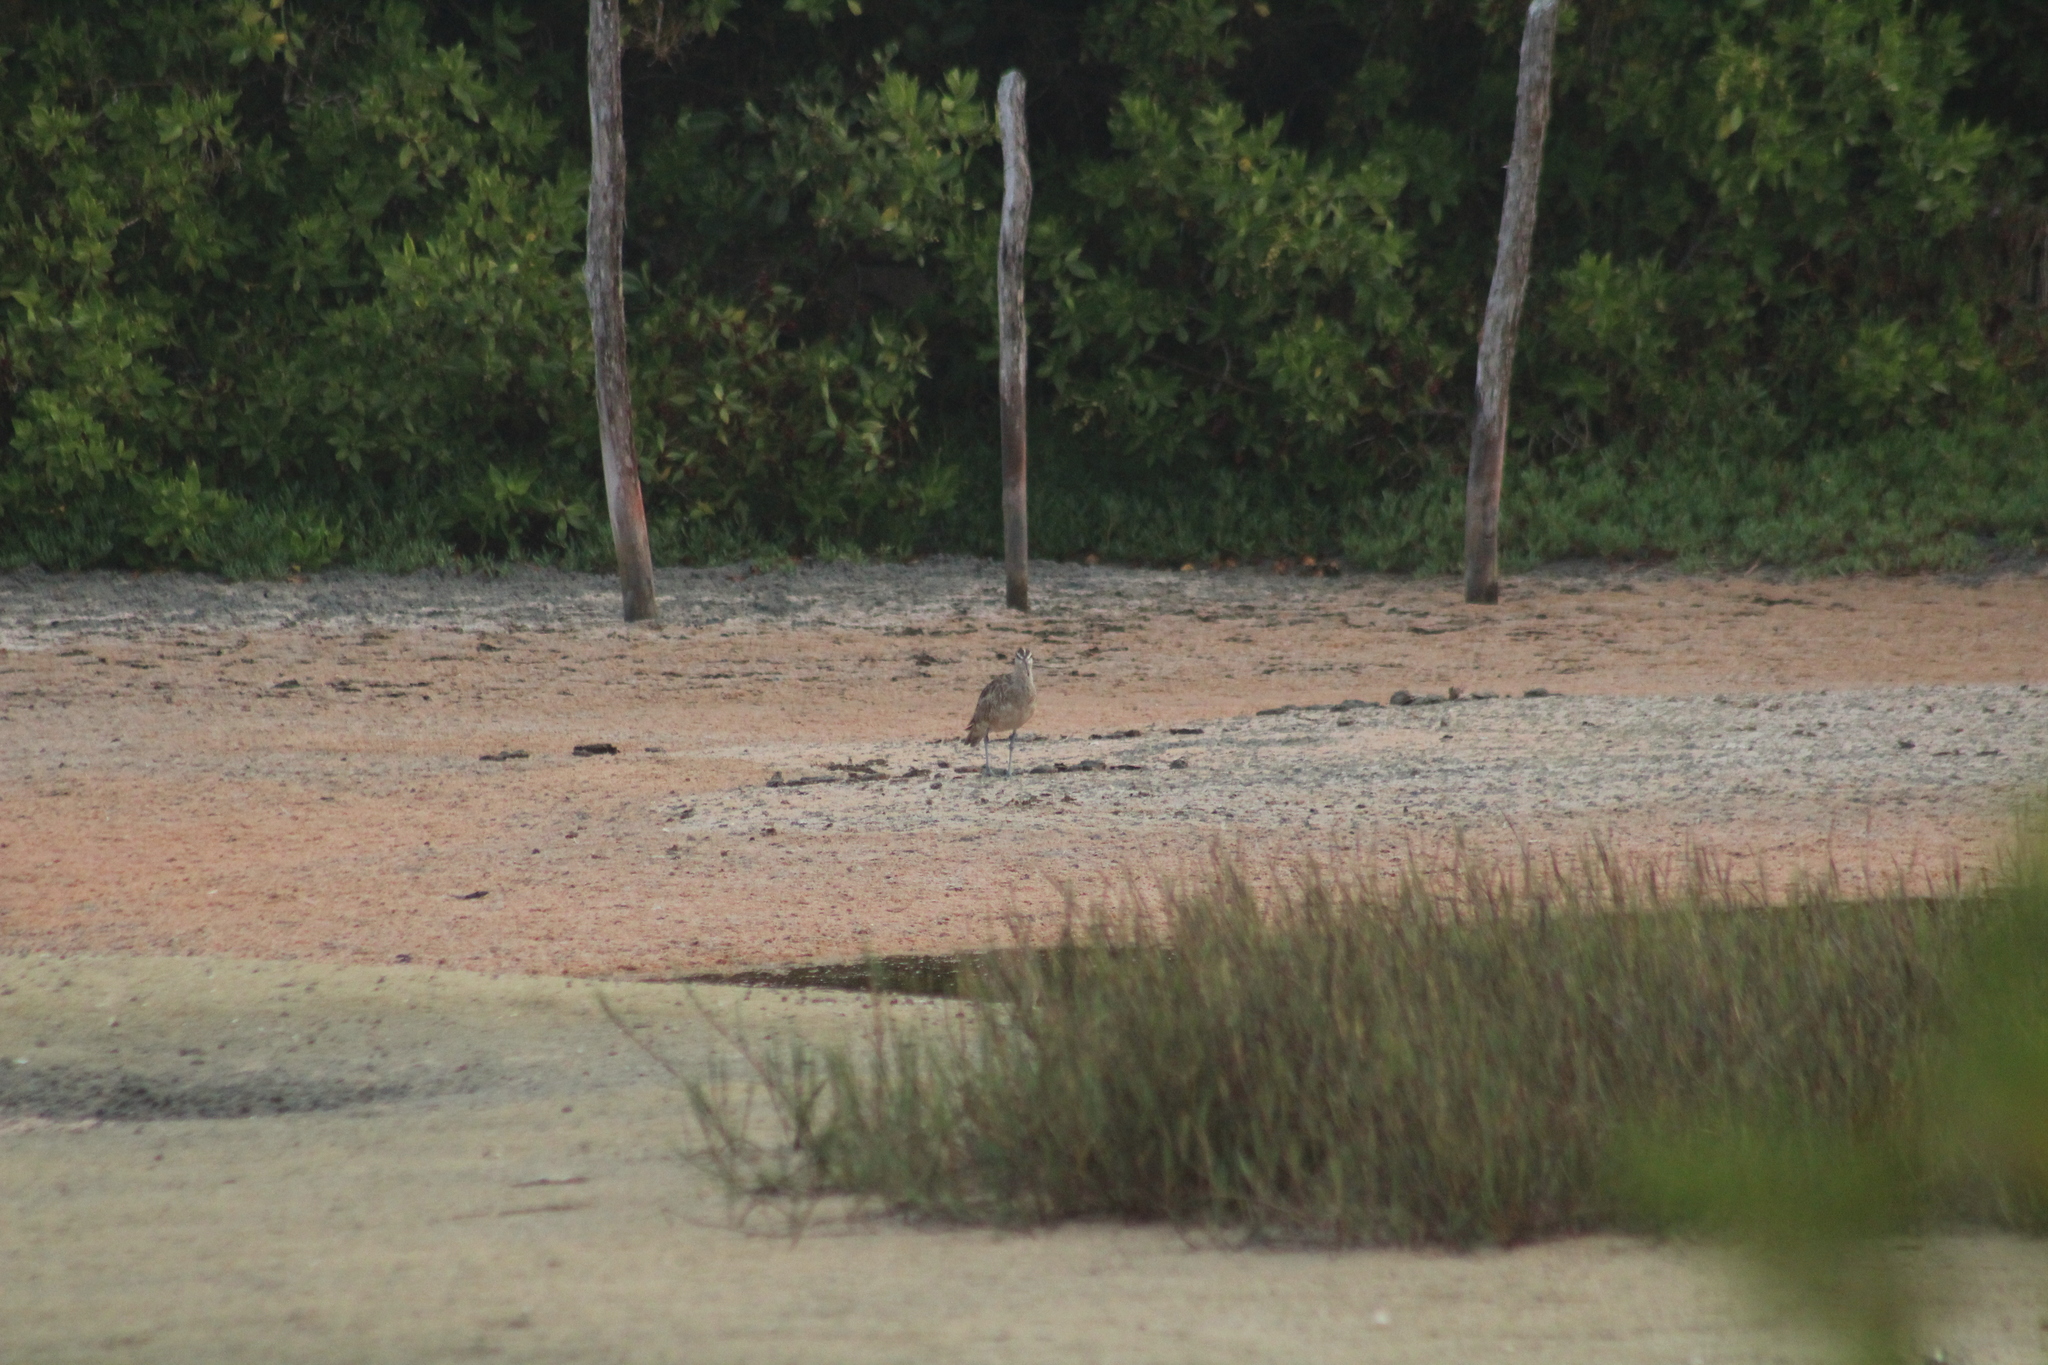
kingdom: Animalia
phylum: Chordata
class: Aves
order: Charadriiformes
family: Scolopacidae
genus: Numenius
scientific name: Numenius phaeopus
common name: Whimbrel
